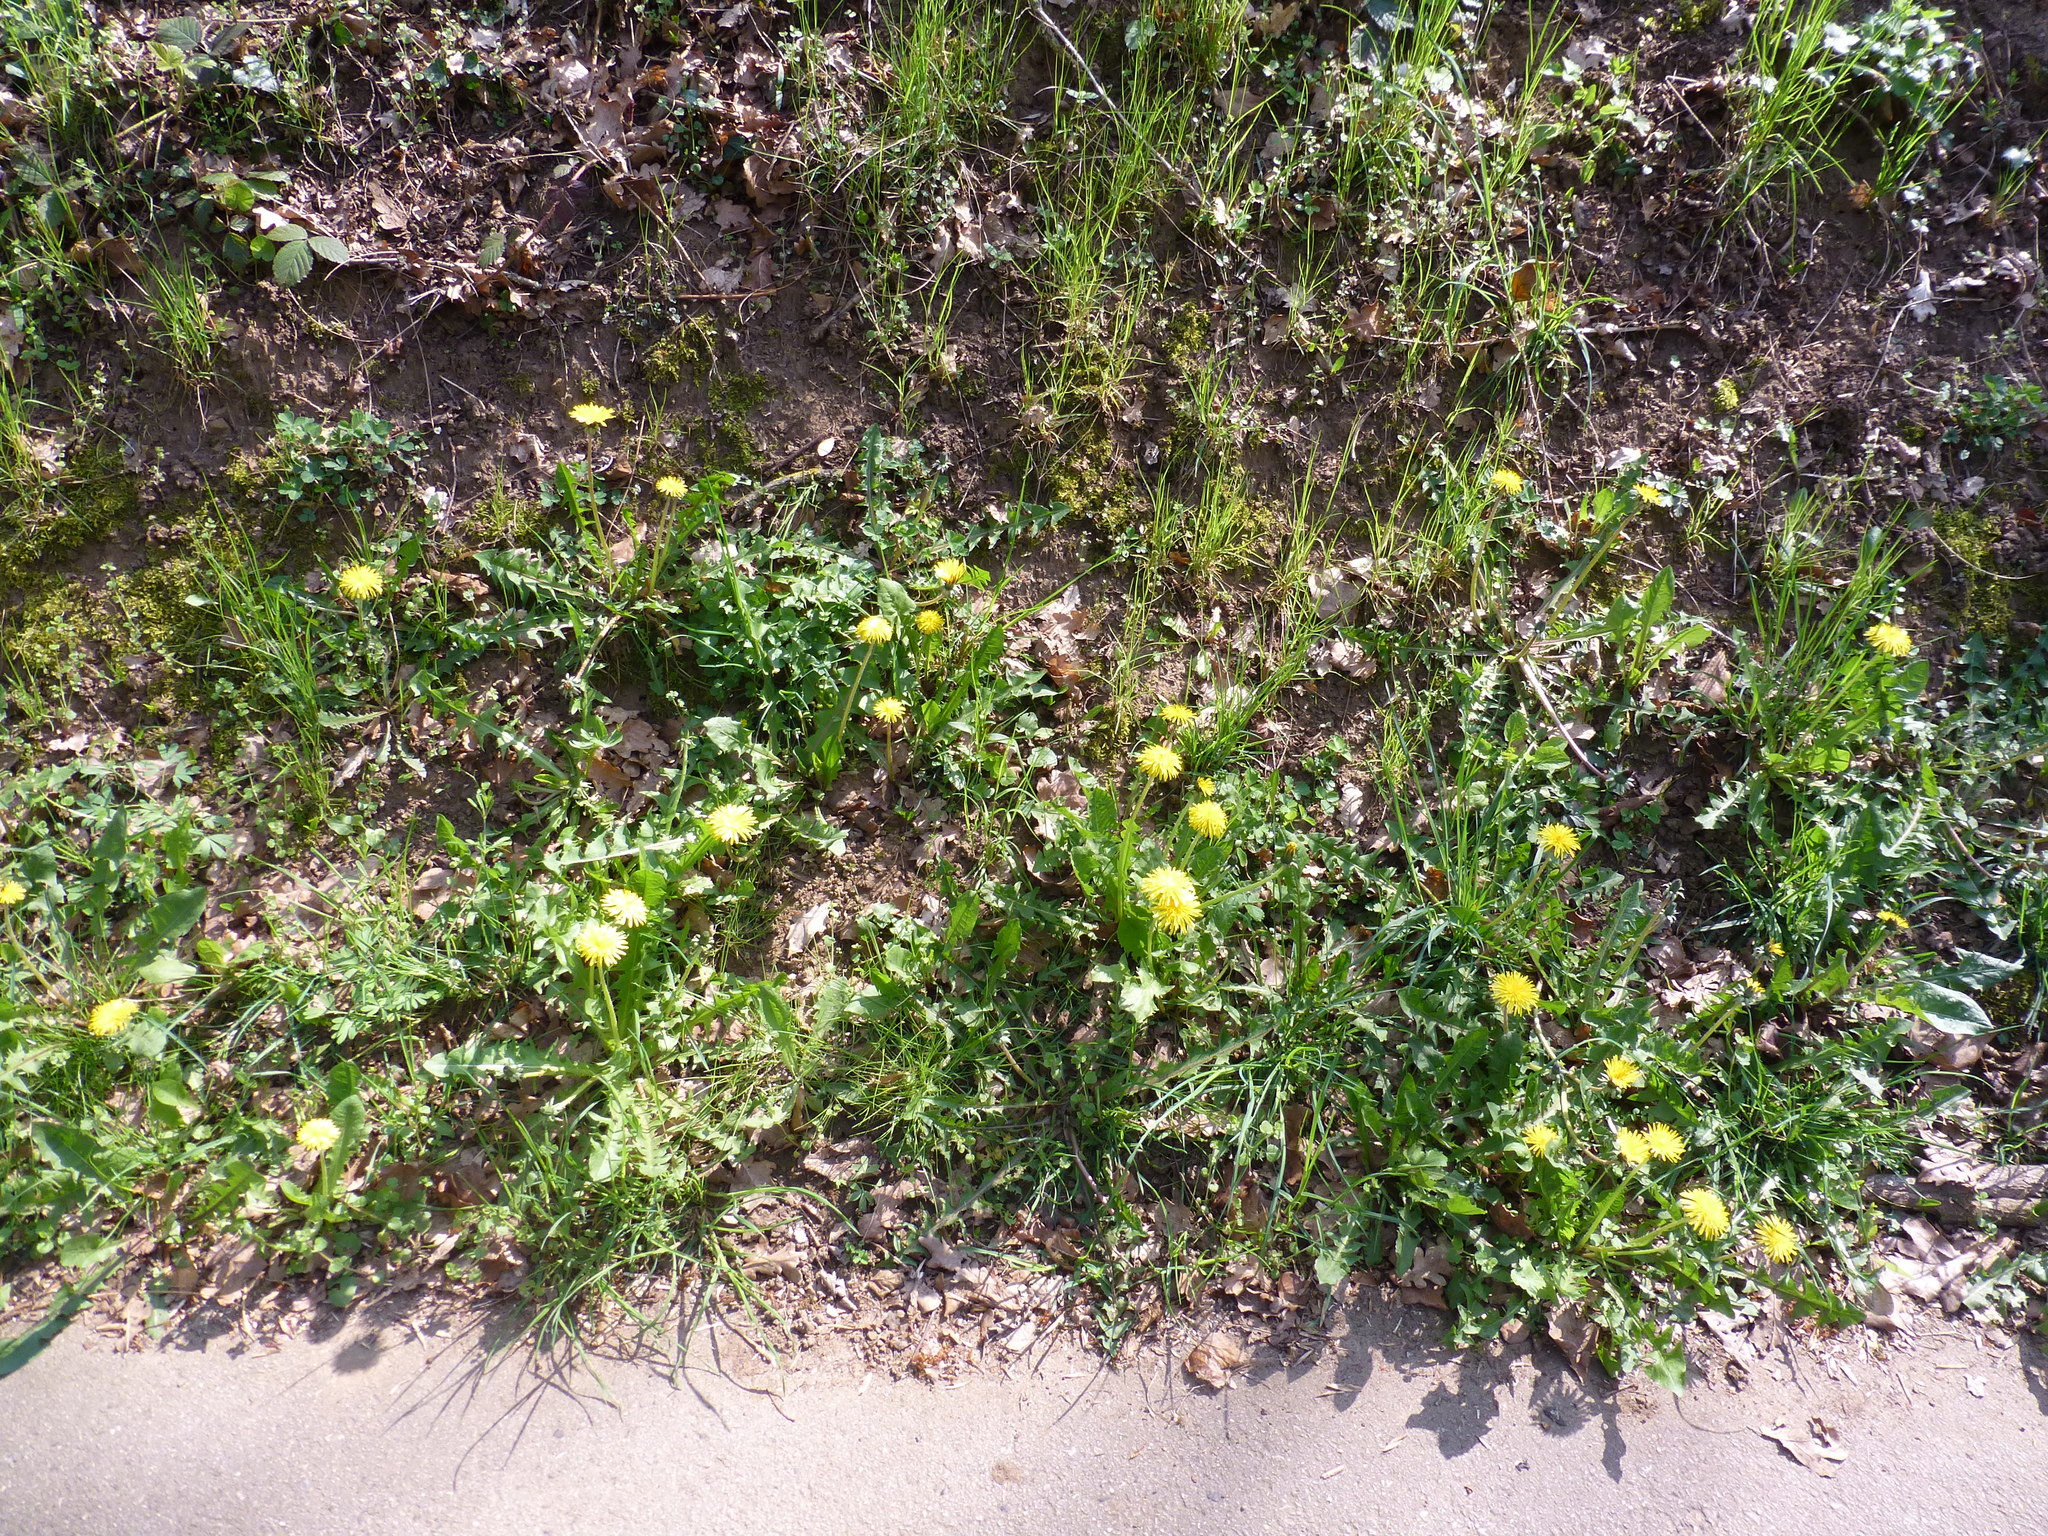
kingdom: Plantae
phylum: Tracheophyta
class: Magnoliopsida
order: Asterales
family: Asteraceae
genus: Taraxacum
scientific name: Taraxacum officinale
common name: Common dandelion
